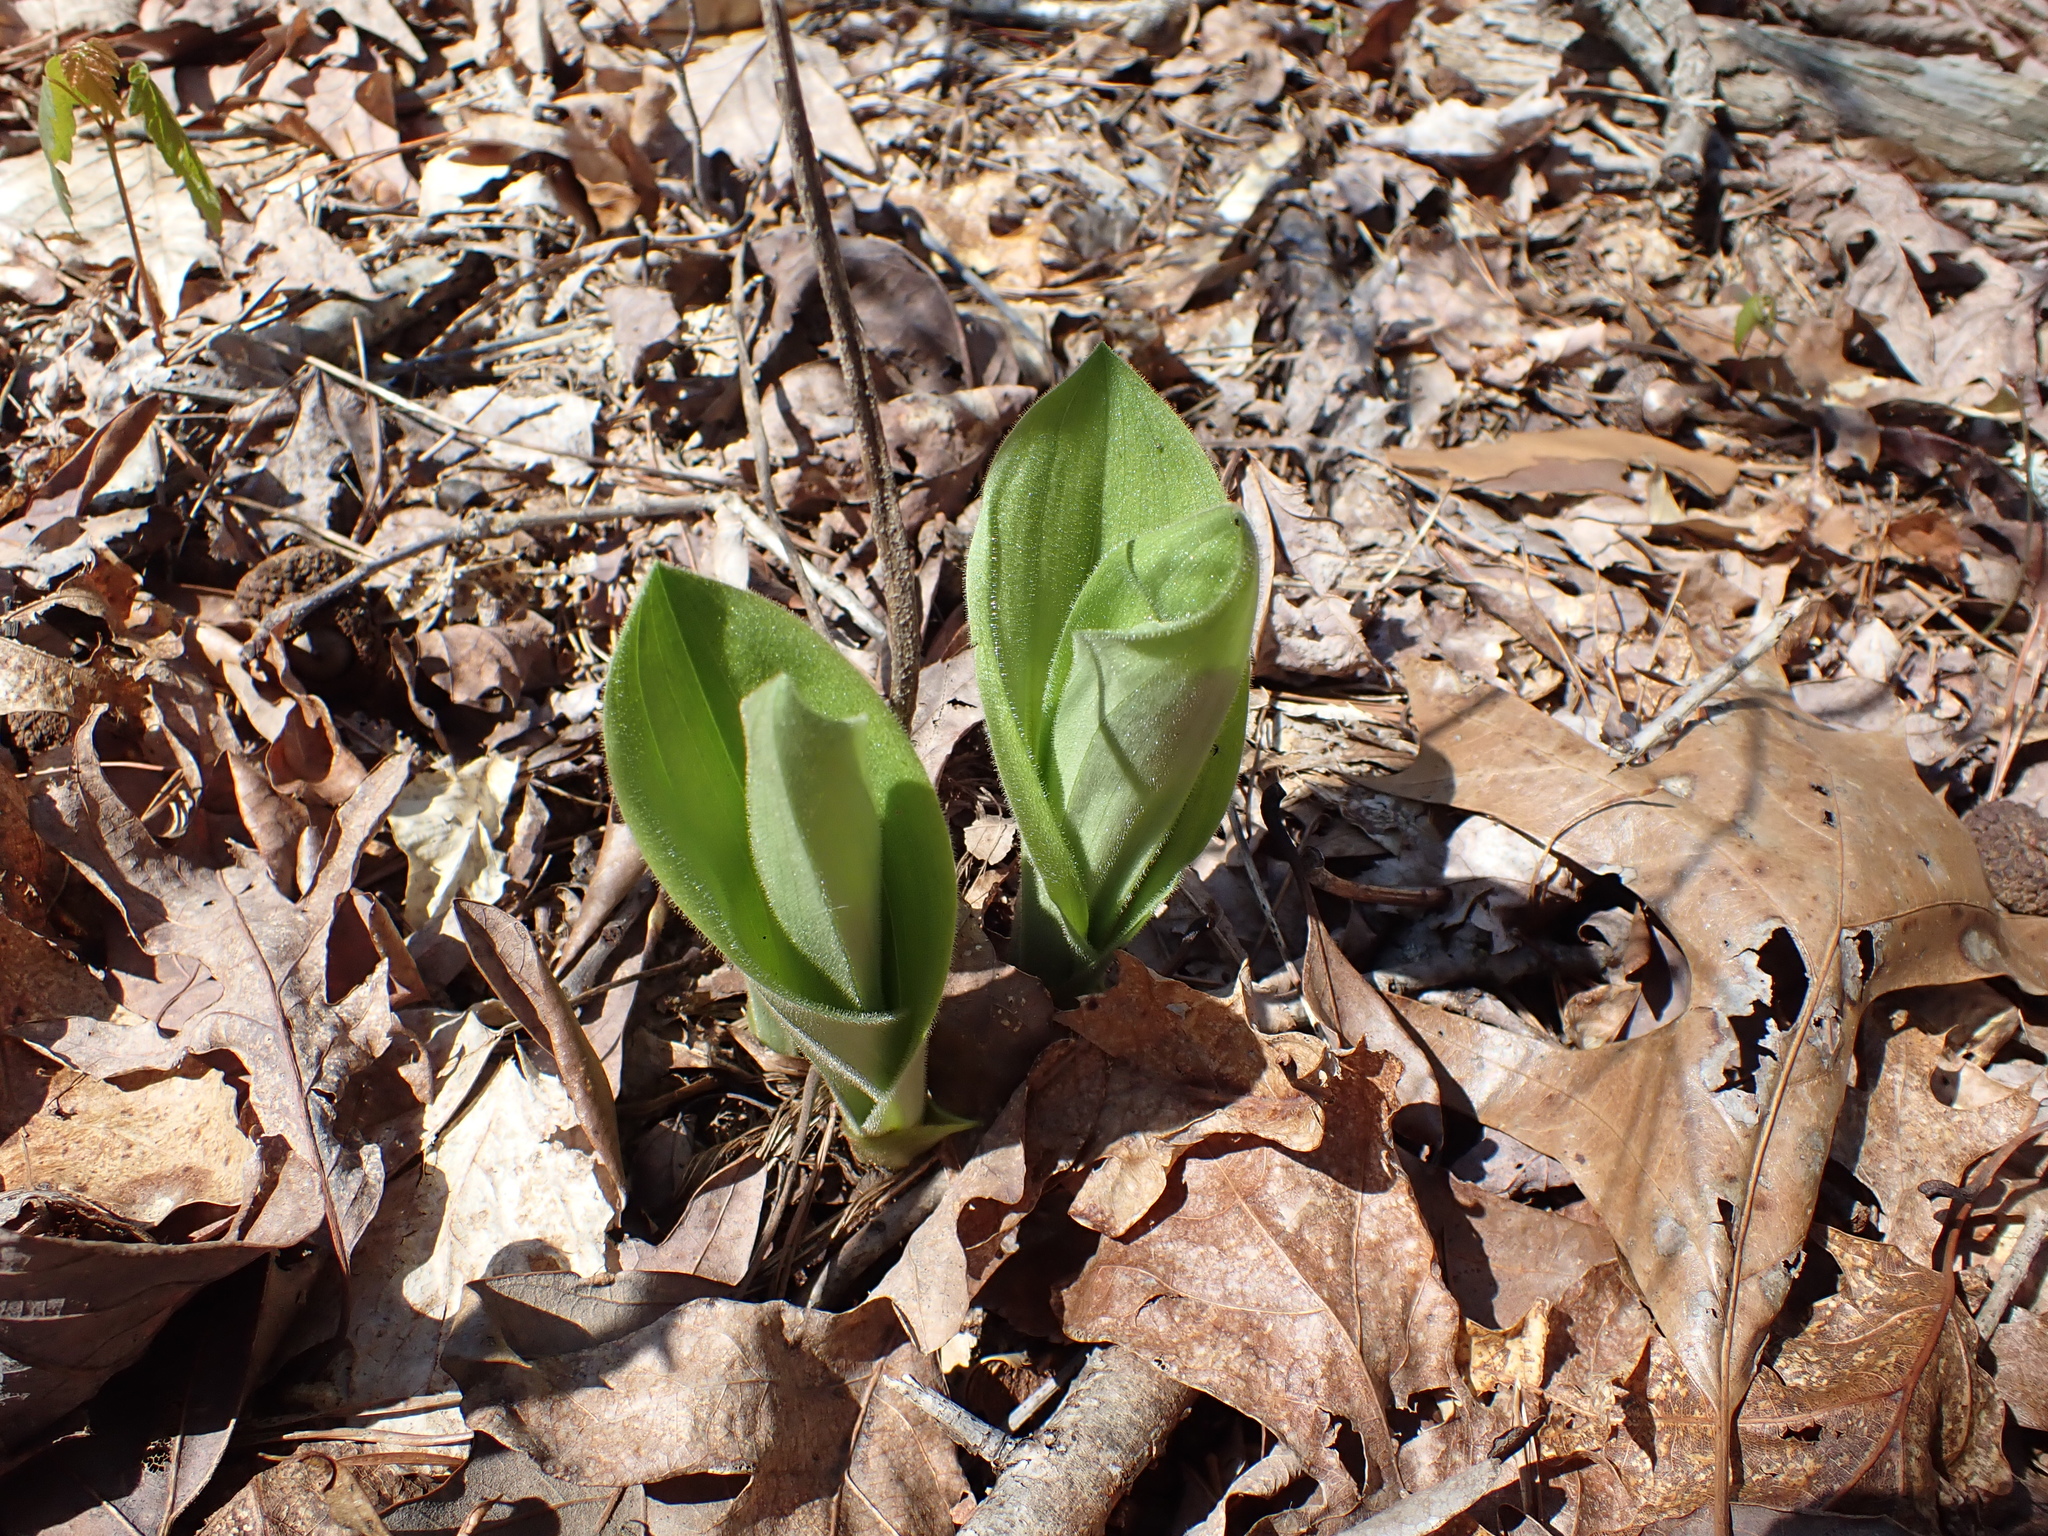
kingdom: Plantae
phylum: Tracheophyta
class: Liliopsida
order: Asparagales
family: Orchidaceae
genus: Cypripedium
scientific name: Cypripedium acaule
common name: Pink lady's-slipper
